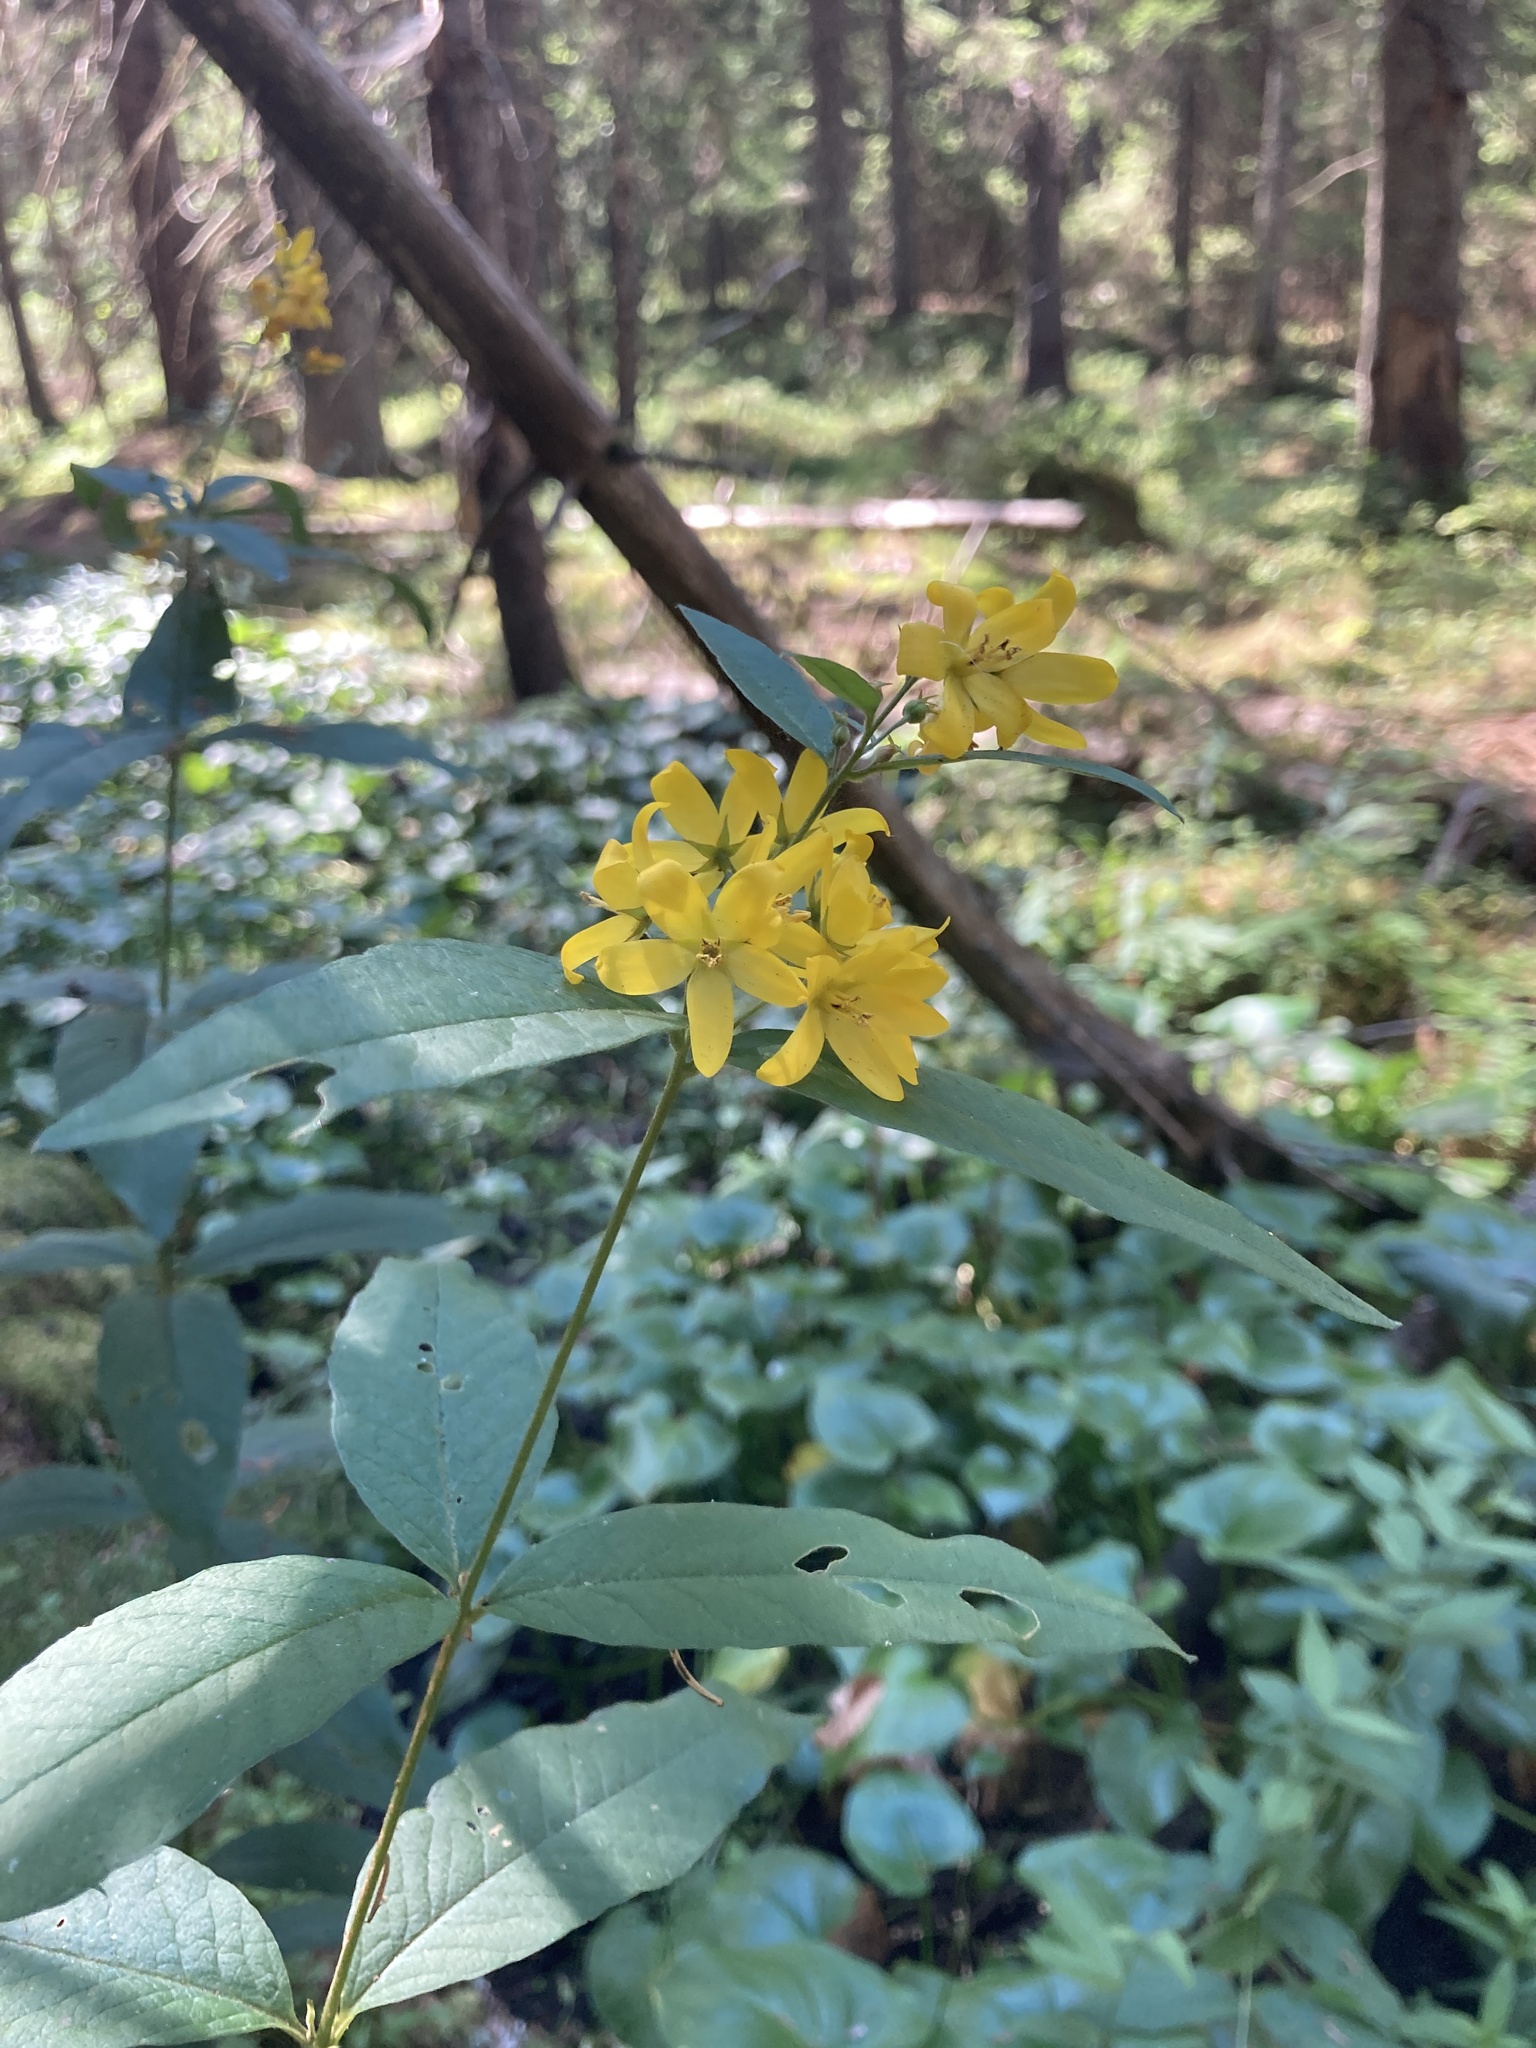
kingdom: Plantae
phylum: Tracheophyta
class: Magnoliopsida
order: Ericales
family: Primulaceae
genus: Lysimachia
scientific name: Lysimachia vulgaris
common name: Yellow loosestrife
